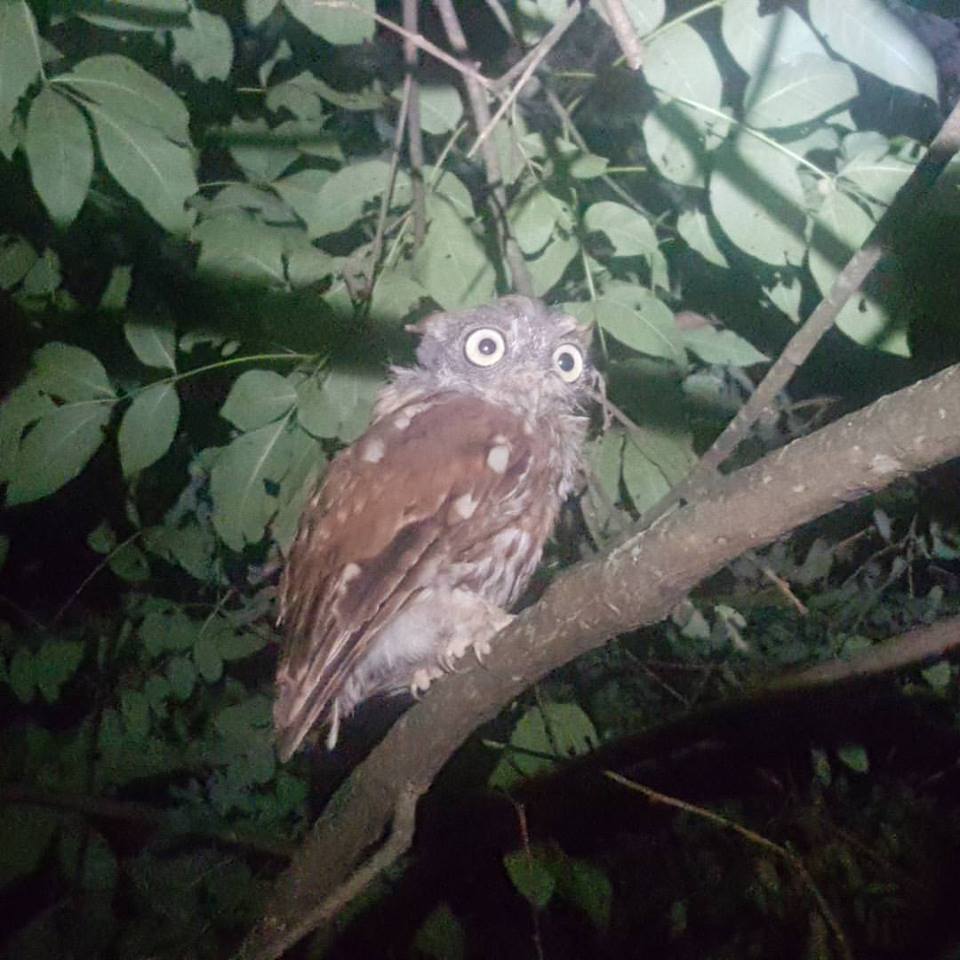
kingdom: Animalia
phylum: Chordata
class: Aves
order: Strigiformes
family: Strigidae
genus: Megascops
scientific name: Megascops asio
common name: Eastern screech-owl
